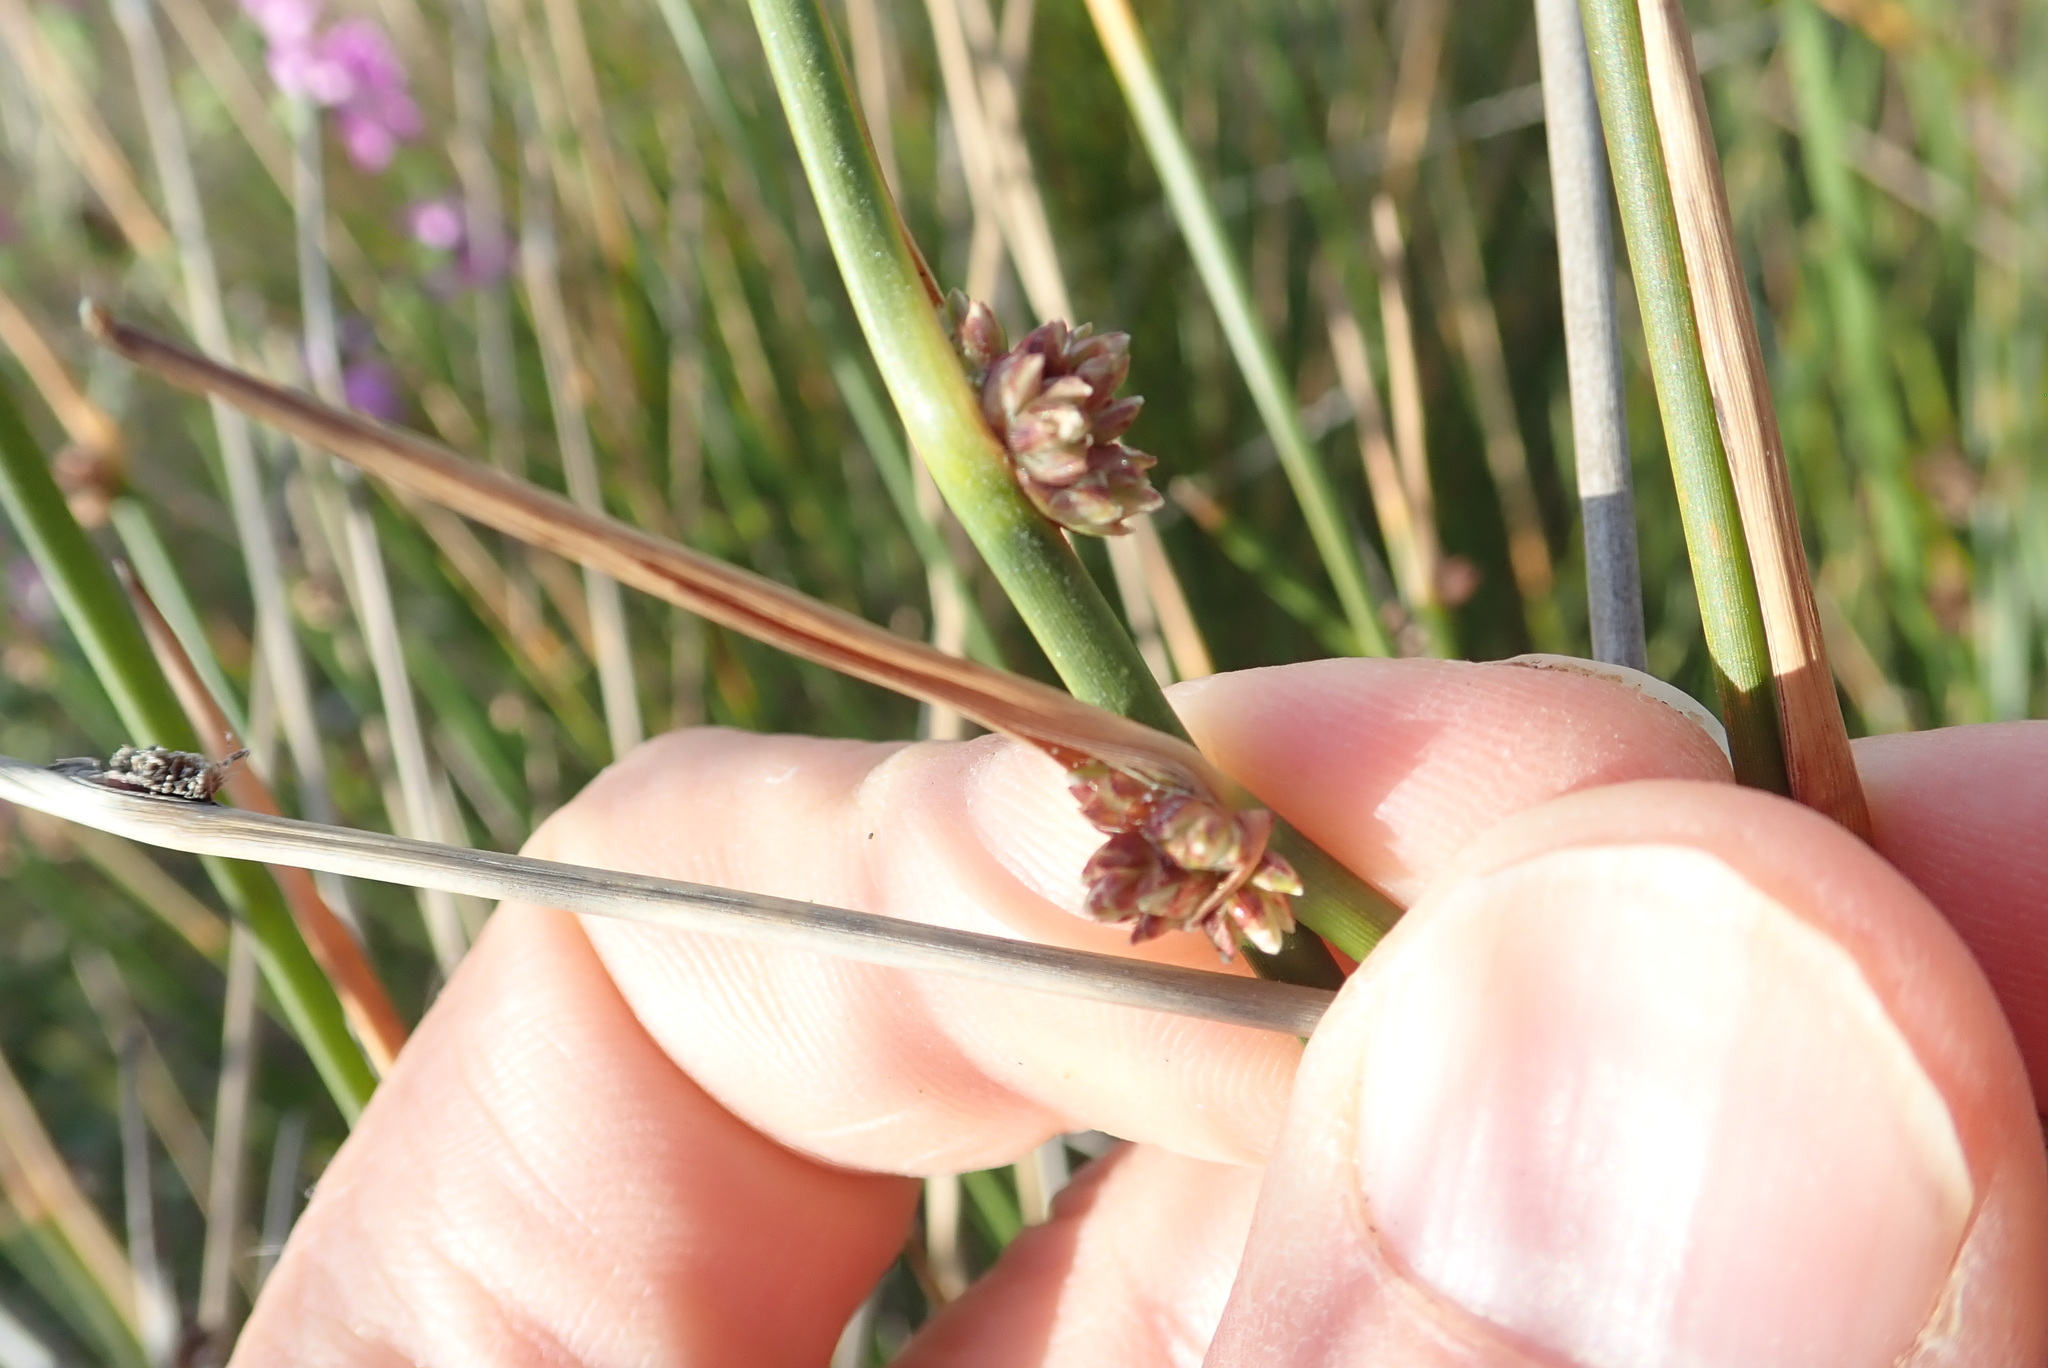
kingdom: Plantae
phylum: Tracheophyta
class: Liliopsida
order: Poales
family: Cyperaceae
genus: Ficinia
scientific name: Ficinia nodosa
